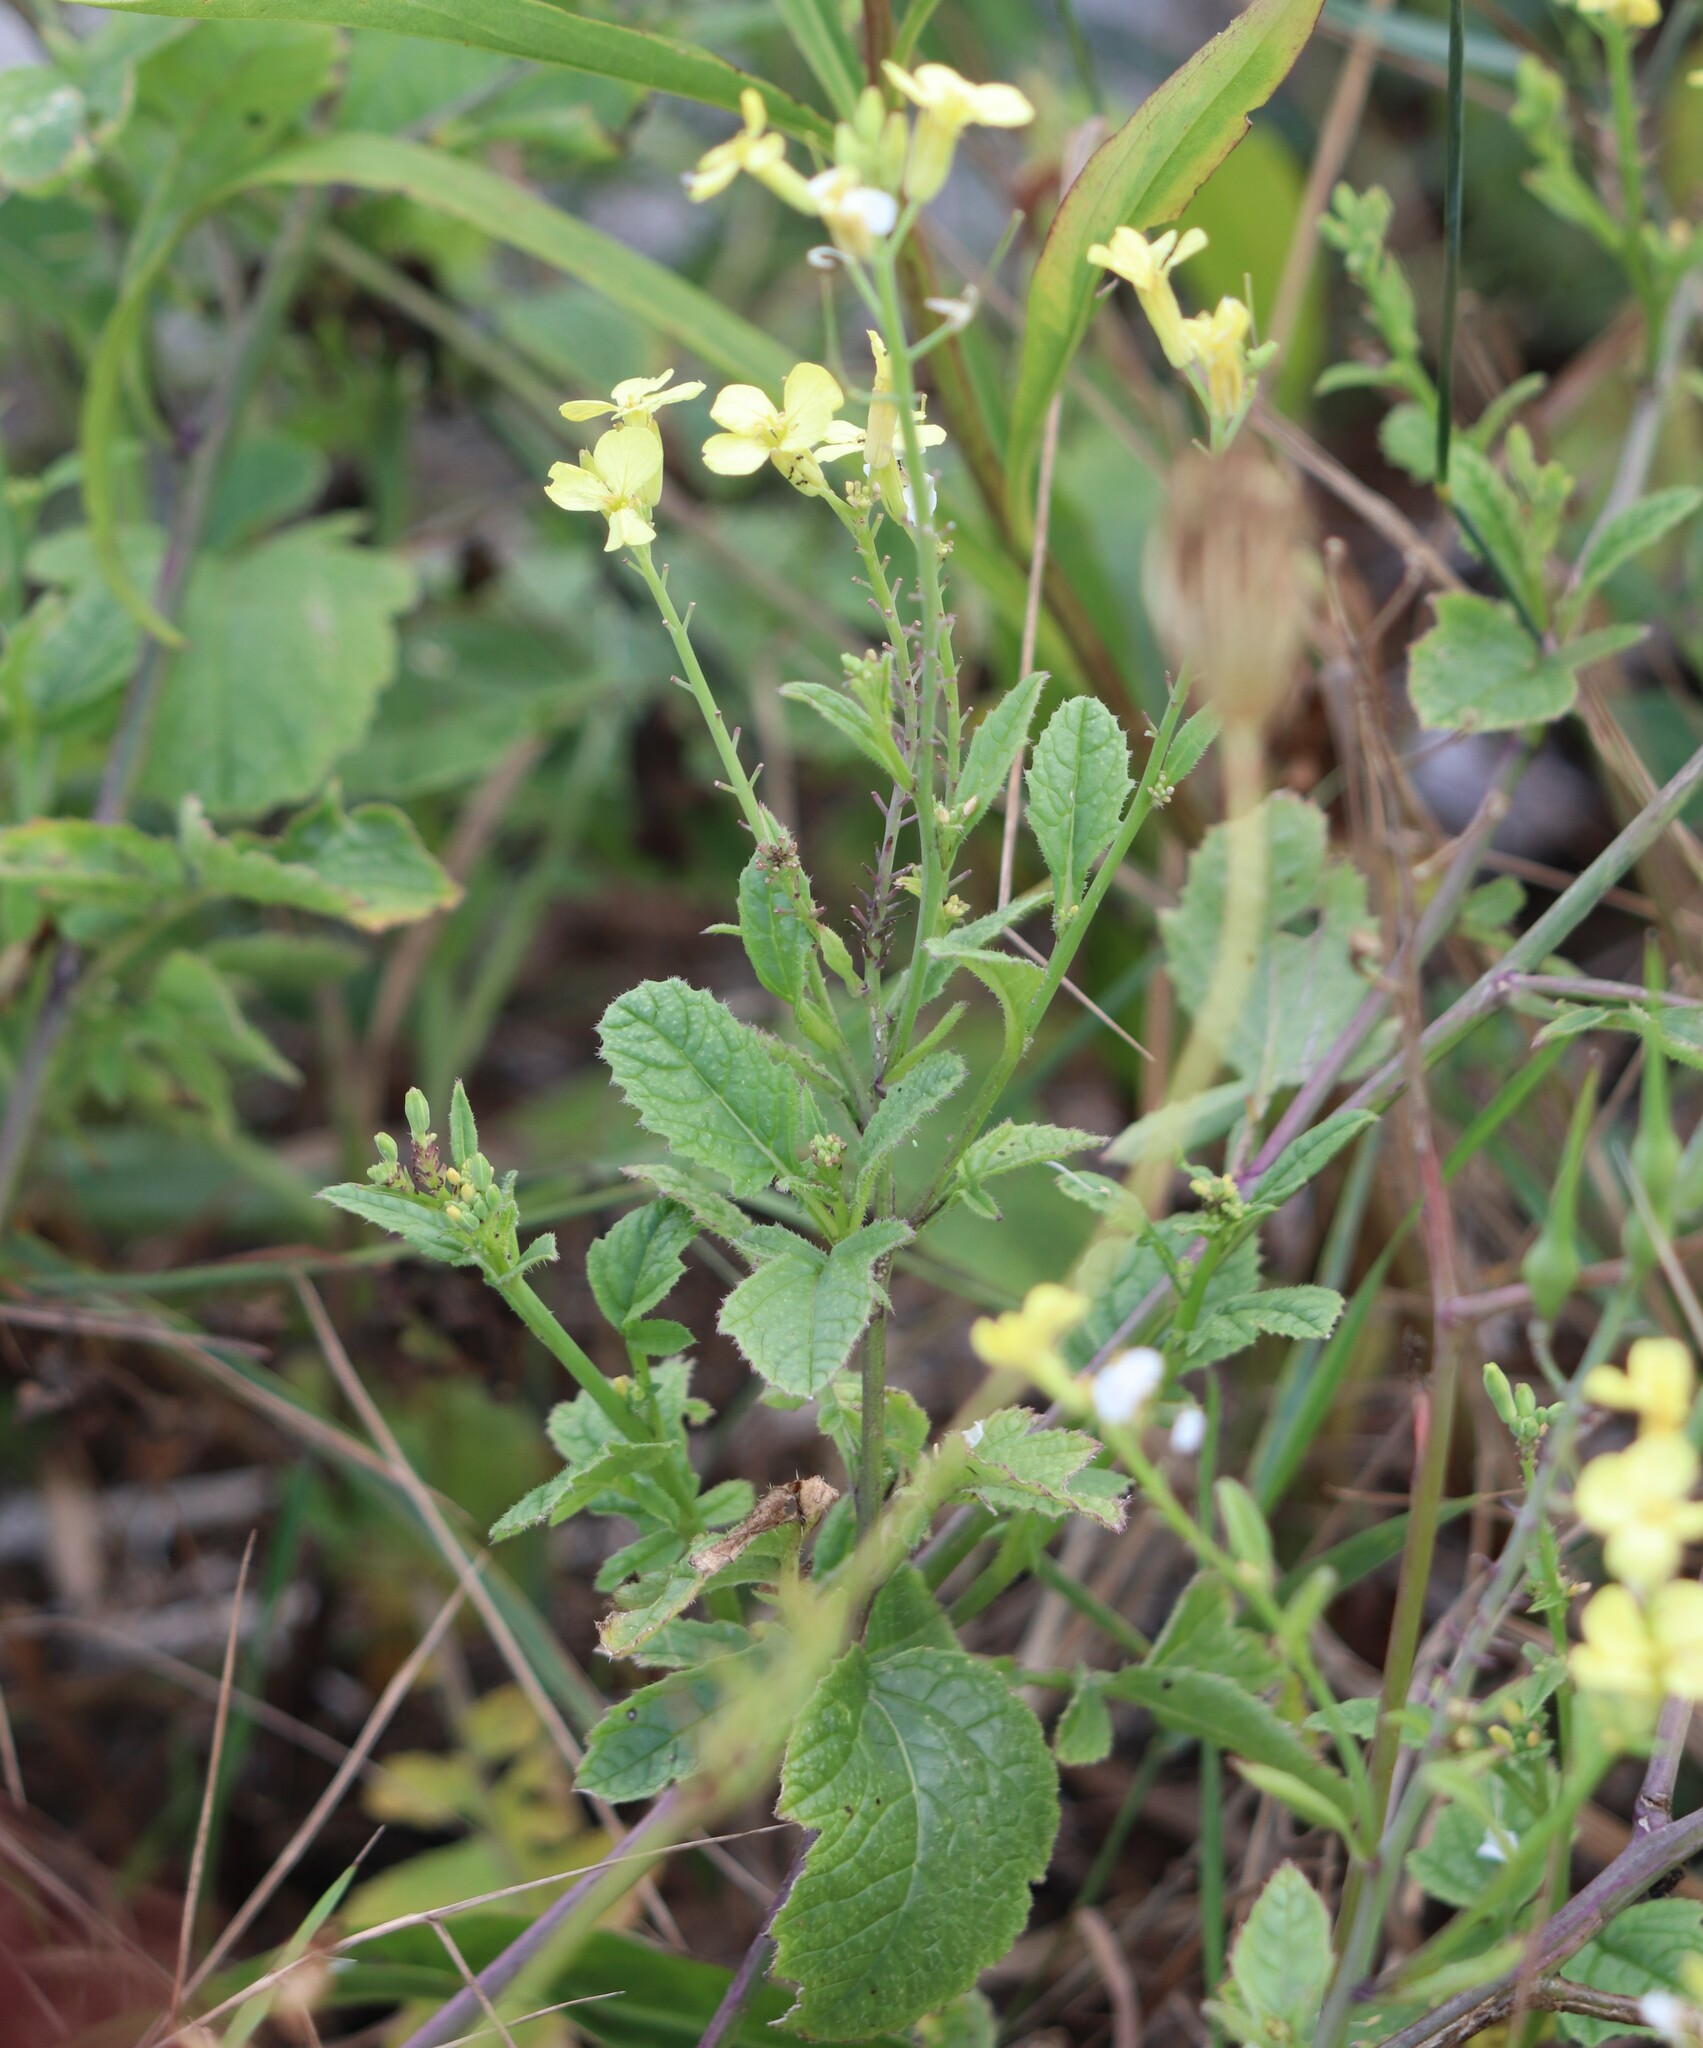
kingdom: Plantae
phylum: Tracheophyta
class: Magnoliopsida
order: Brassicales
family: Brassicaceae
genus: Raphanus
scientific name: Raphanus raphanistrum
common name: Wild radish
